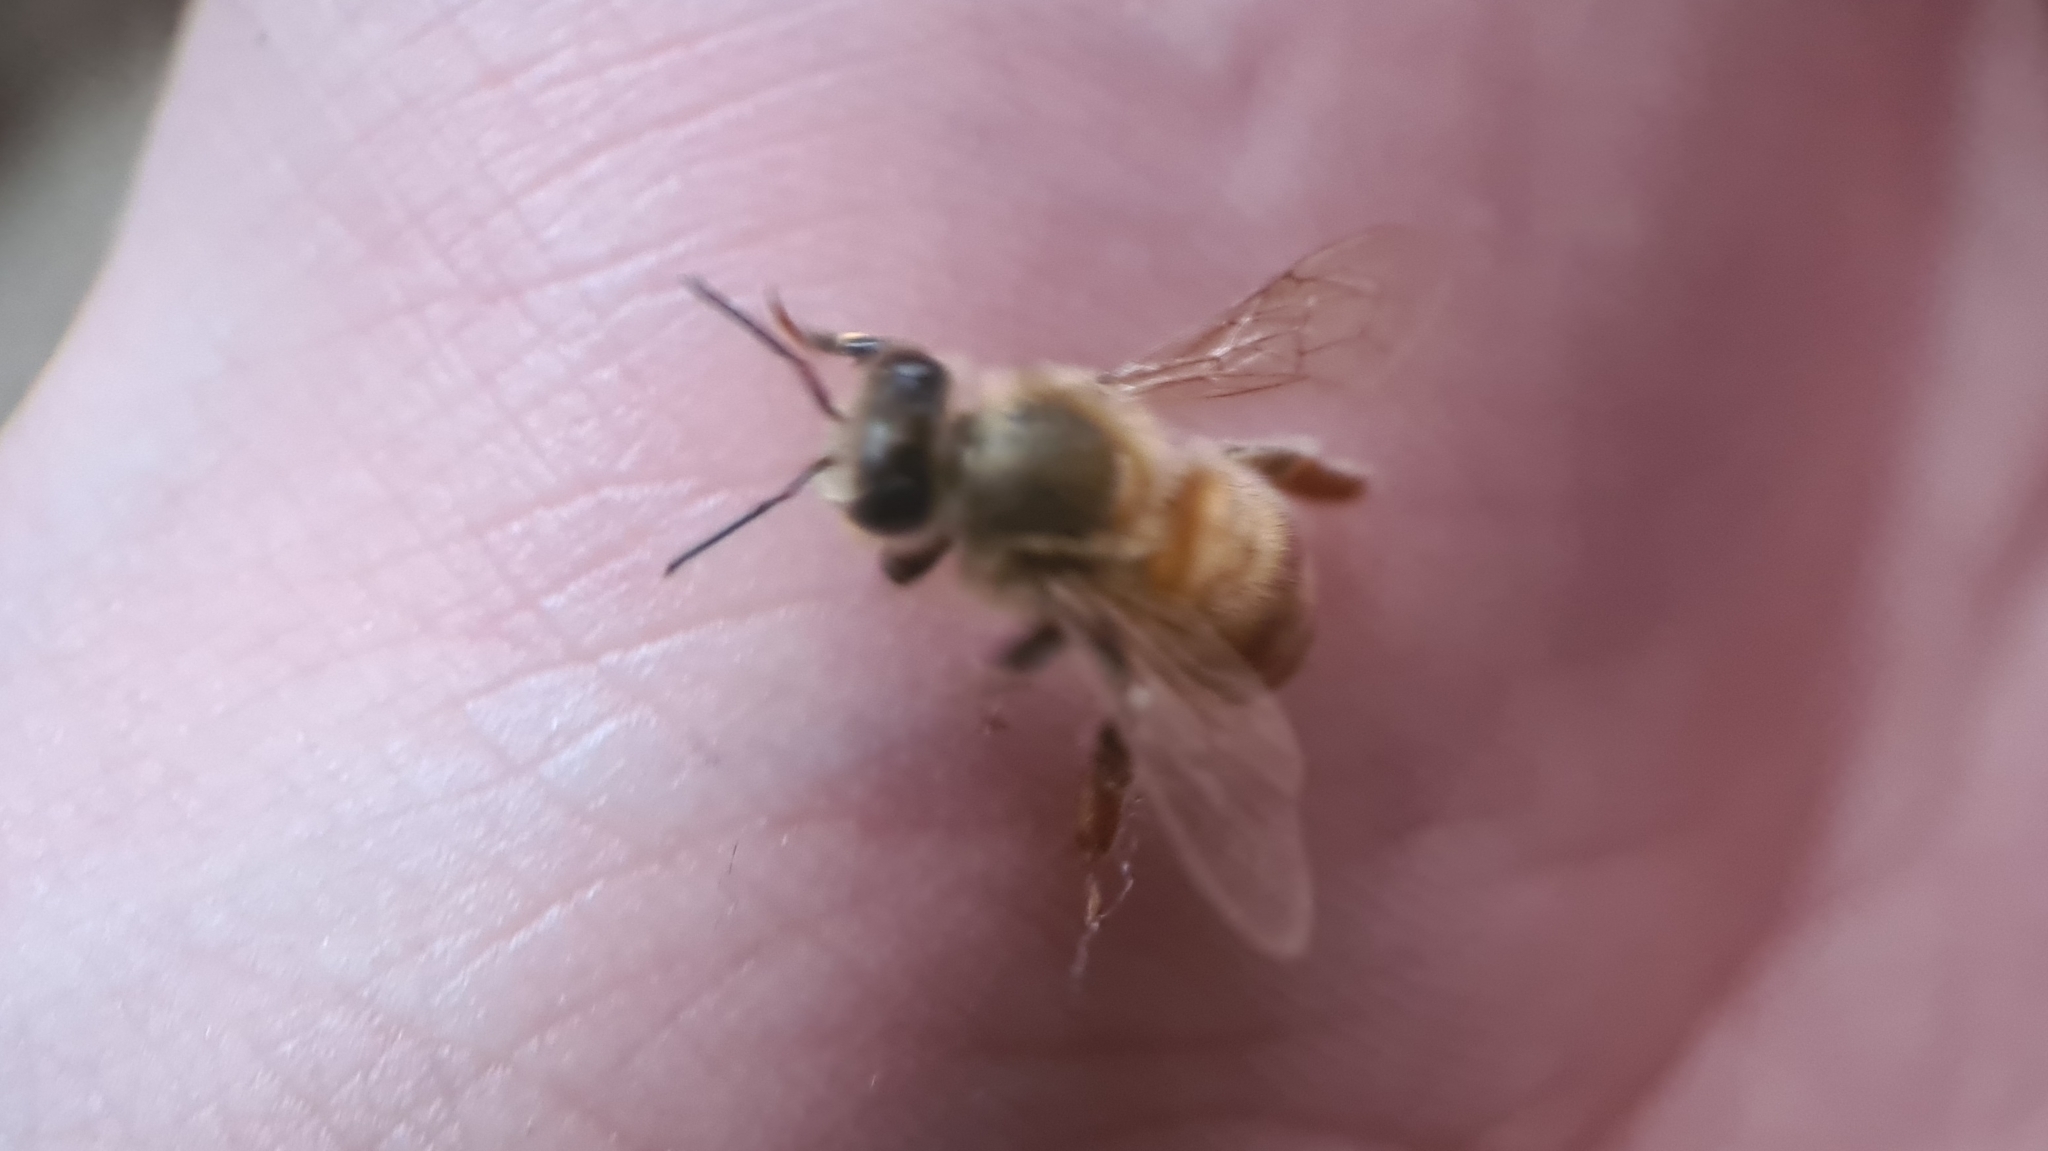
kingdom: Animalia
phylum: Arthropoda
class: Insecta
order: Hymenoptera
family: Apidae
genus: Apis
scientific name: Apis mellifera
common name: Honey bee
